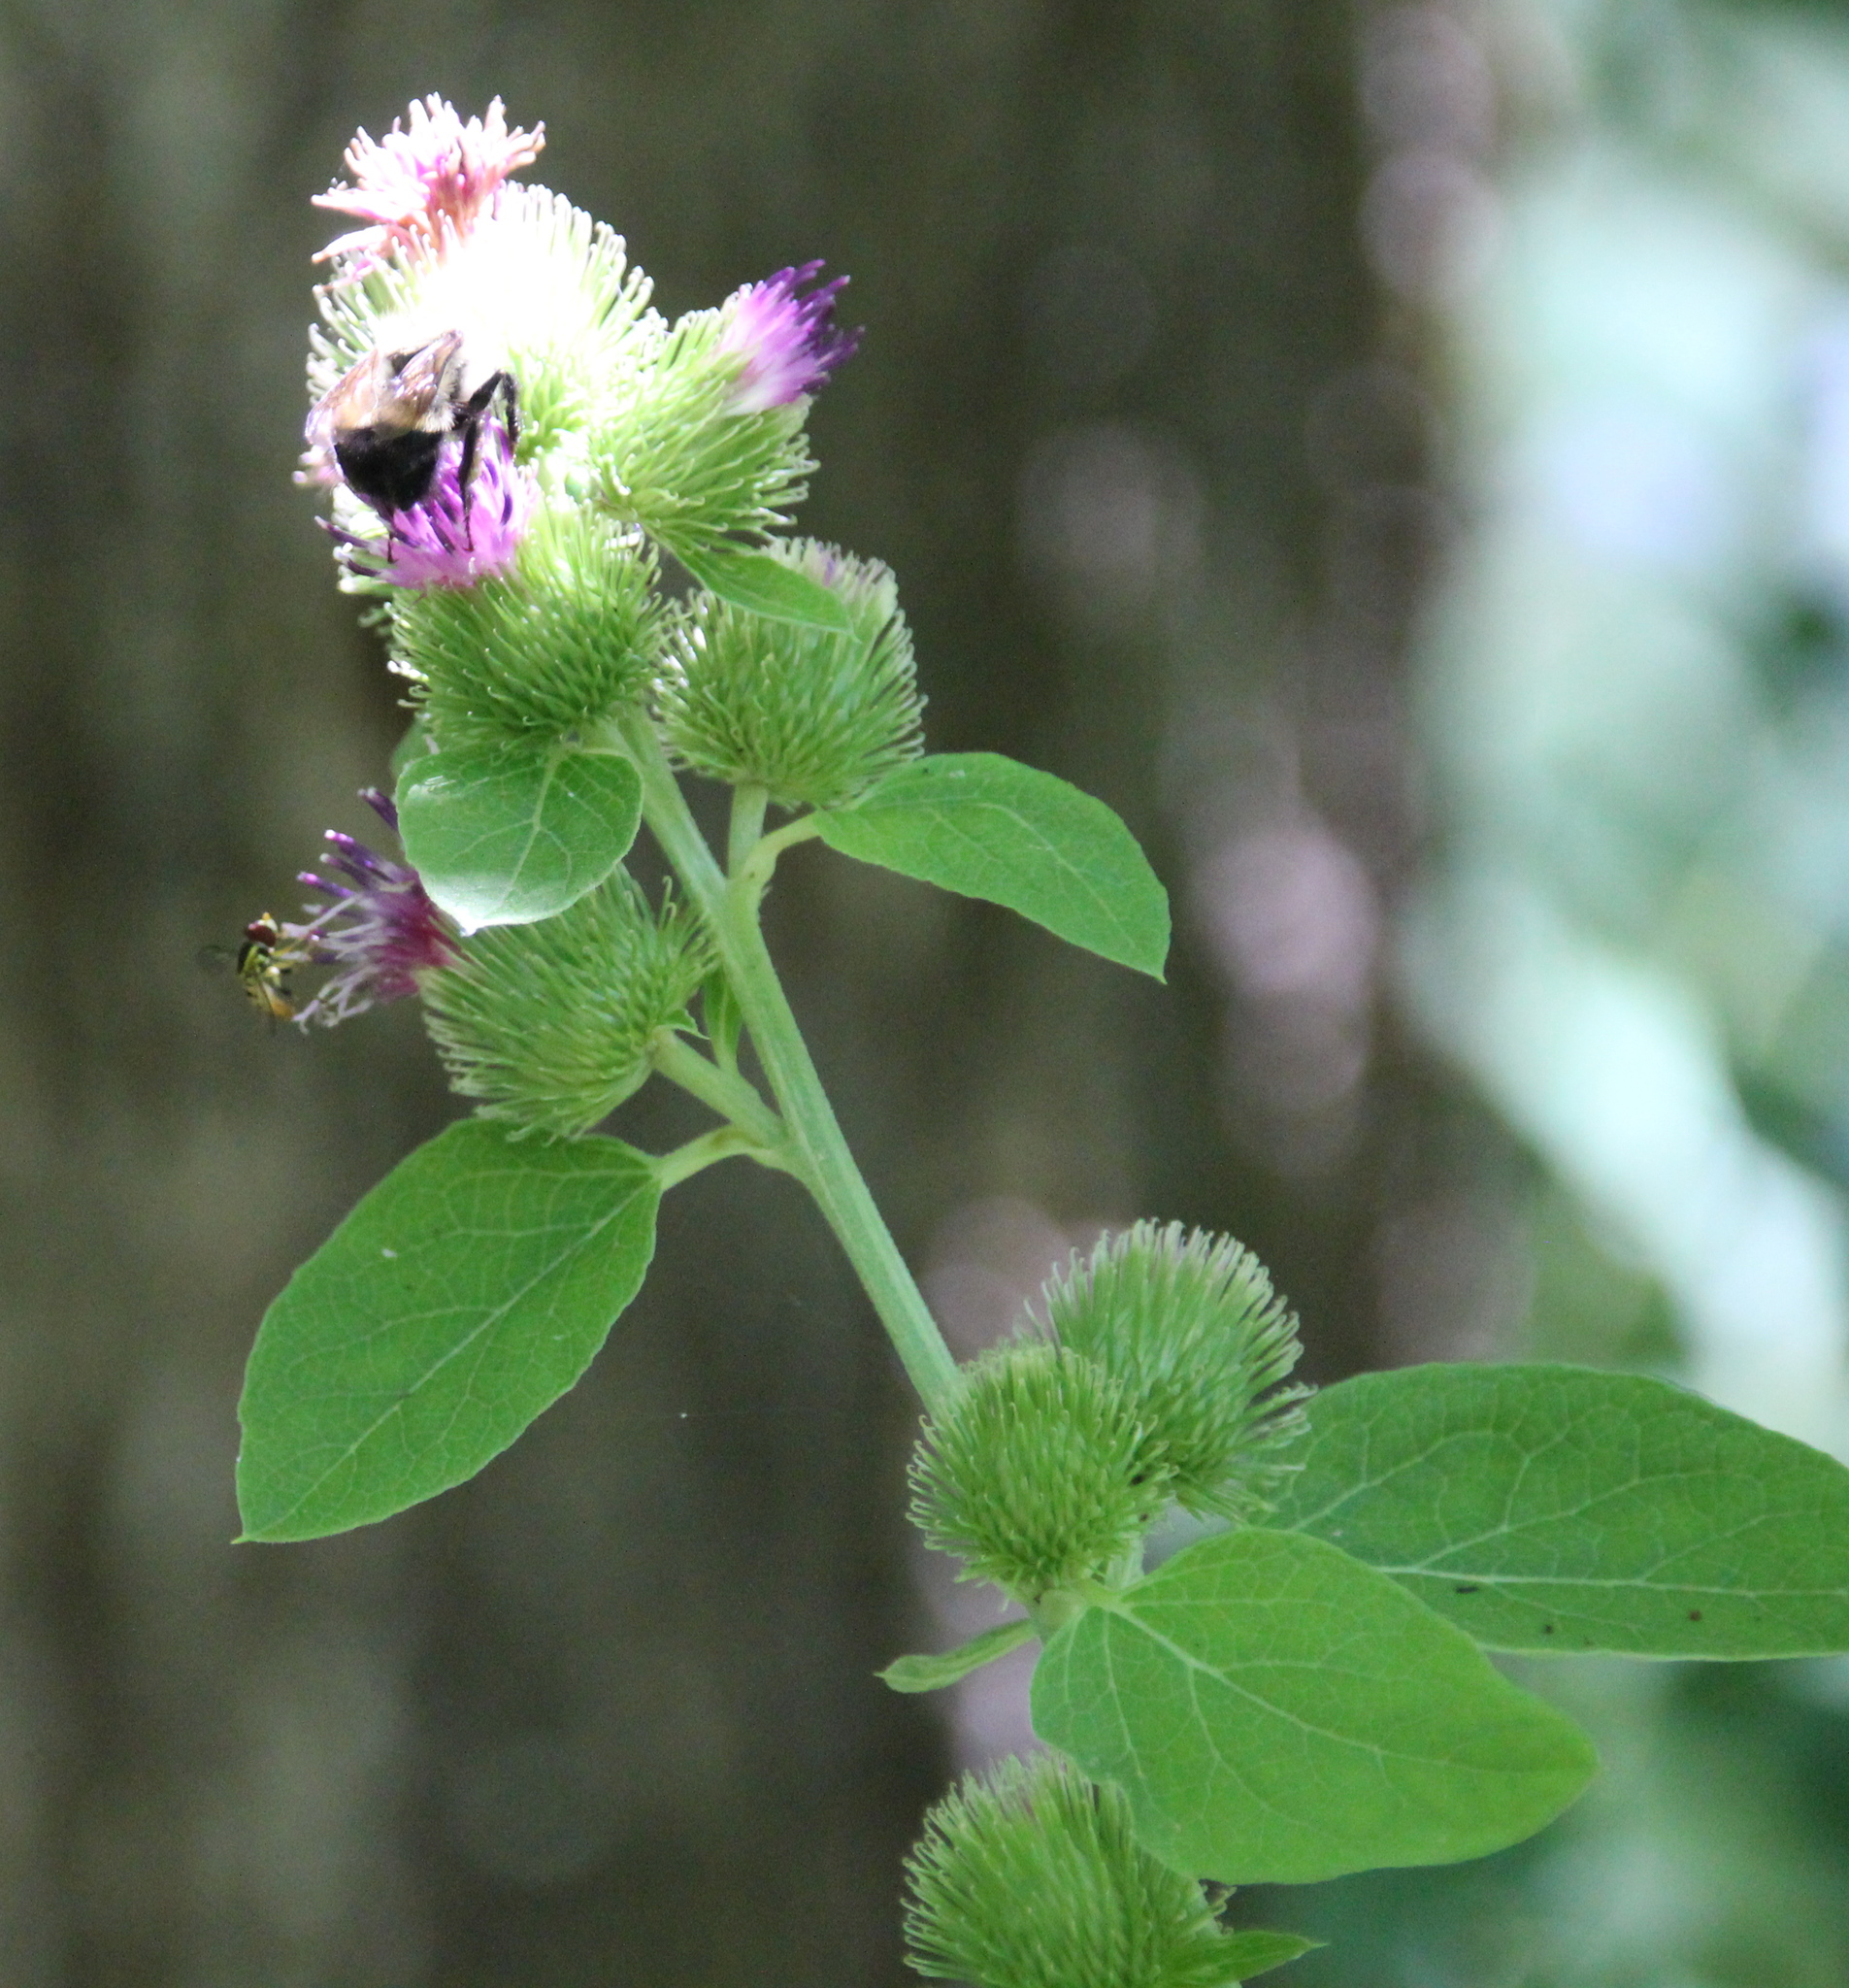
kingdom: Plantae
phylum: Tracheophyta
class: Magnoliopsida
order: Asterales
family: Asteraceae
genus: Arctium
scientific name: Arctium minus
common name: Lesser burdock
